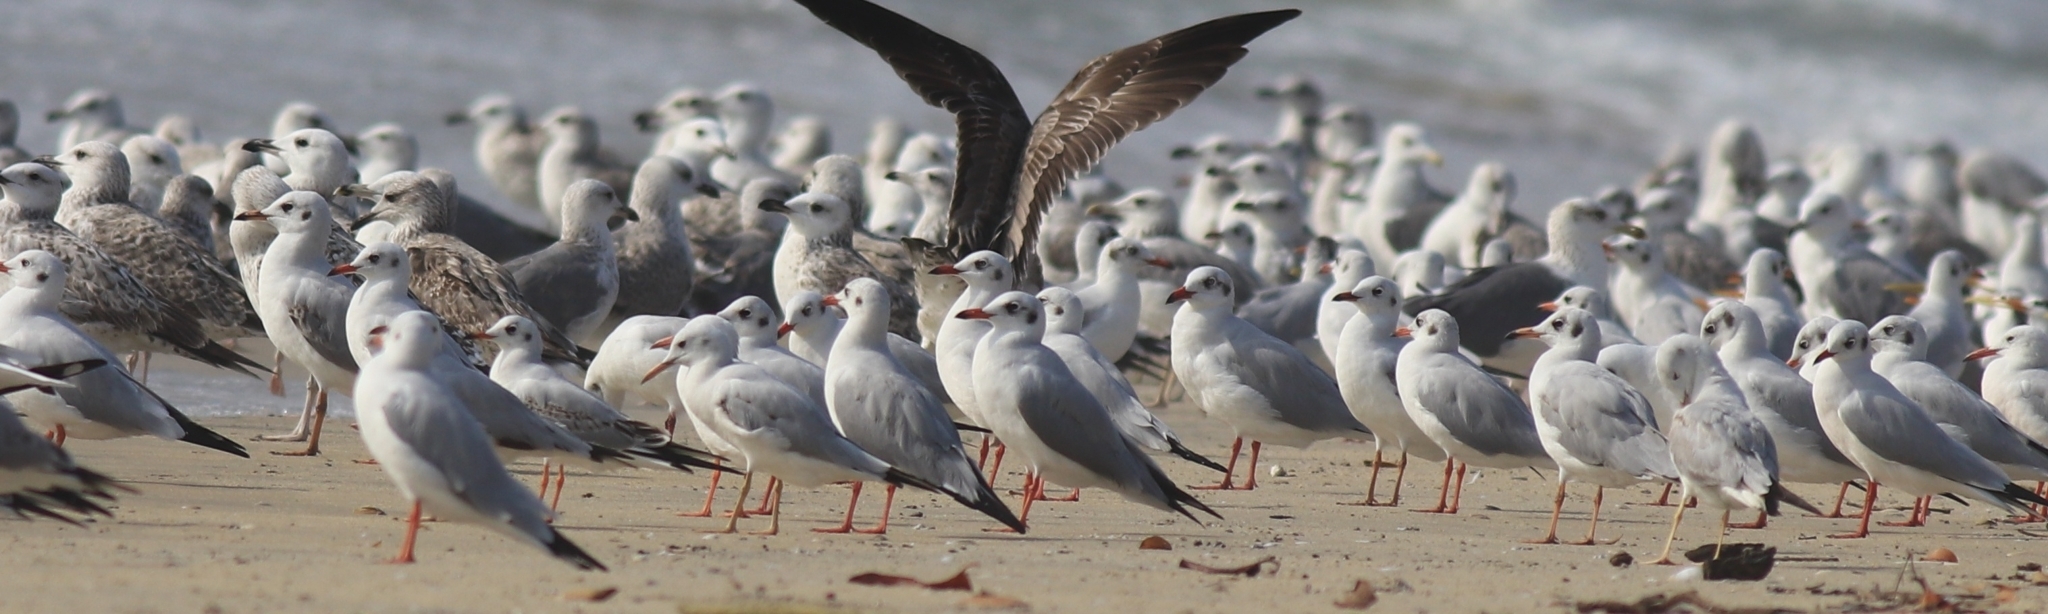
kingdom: Animalia
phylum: Chordata
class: Aves
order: Charadriiformes
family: Laridae
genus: Chroicocephalus
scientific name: Chroicocephalus brunnicephalus
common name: Brown-headed gull
